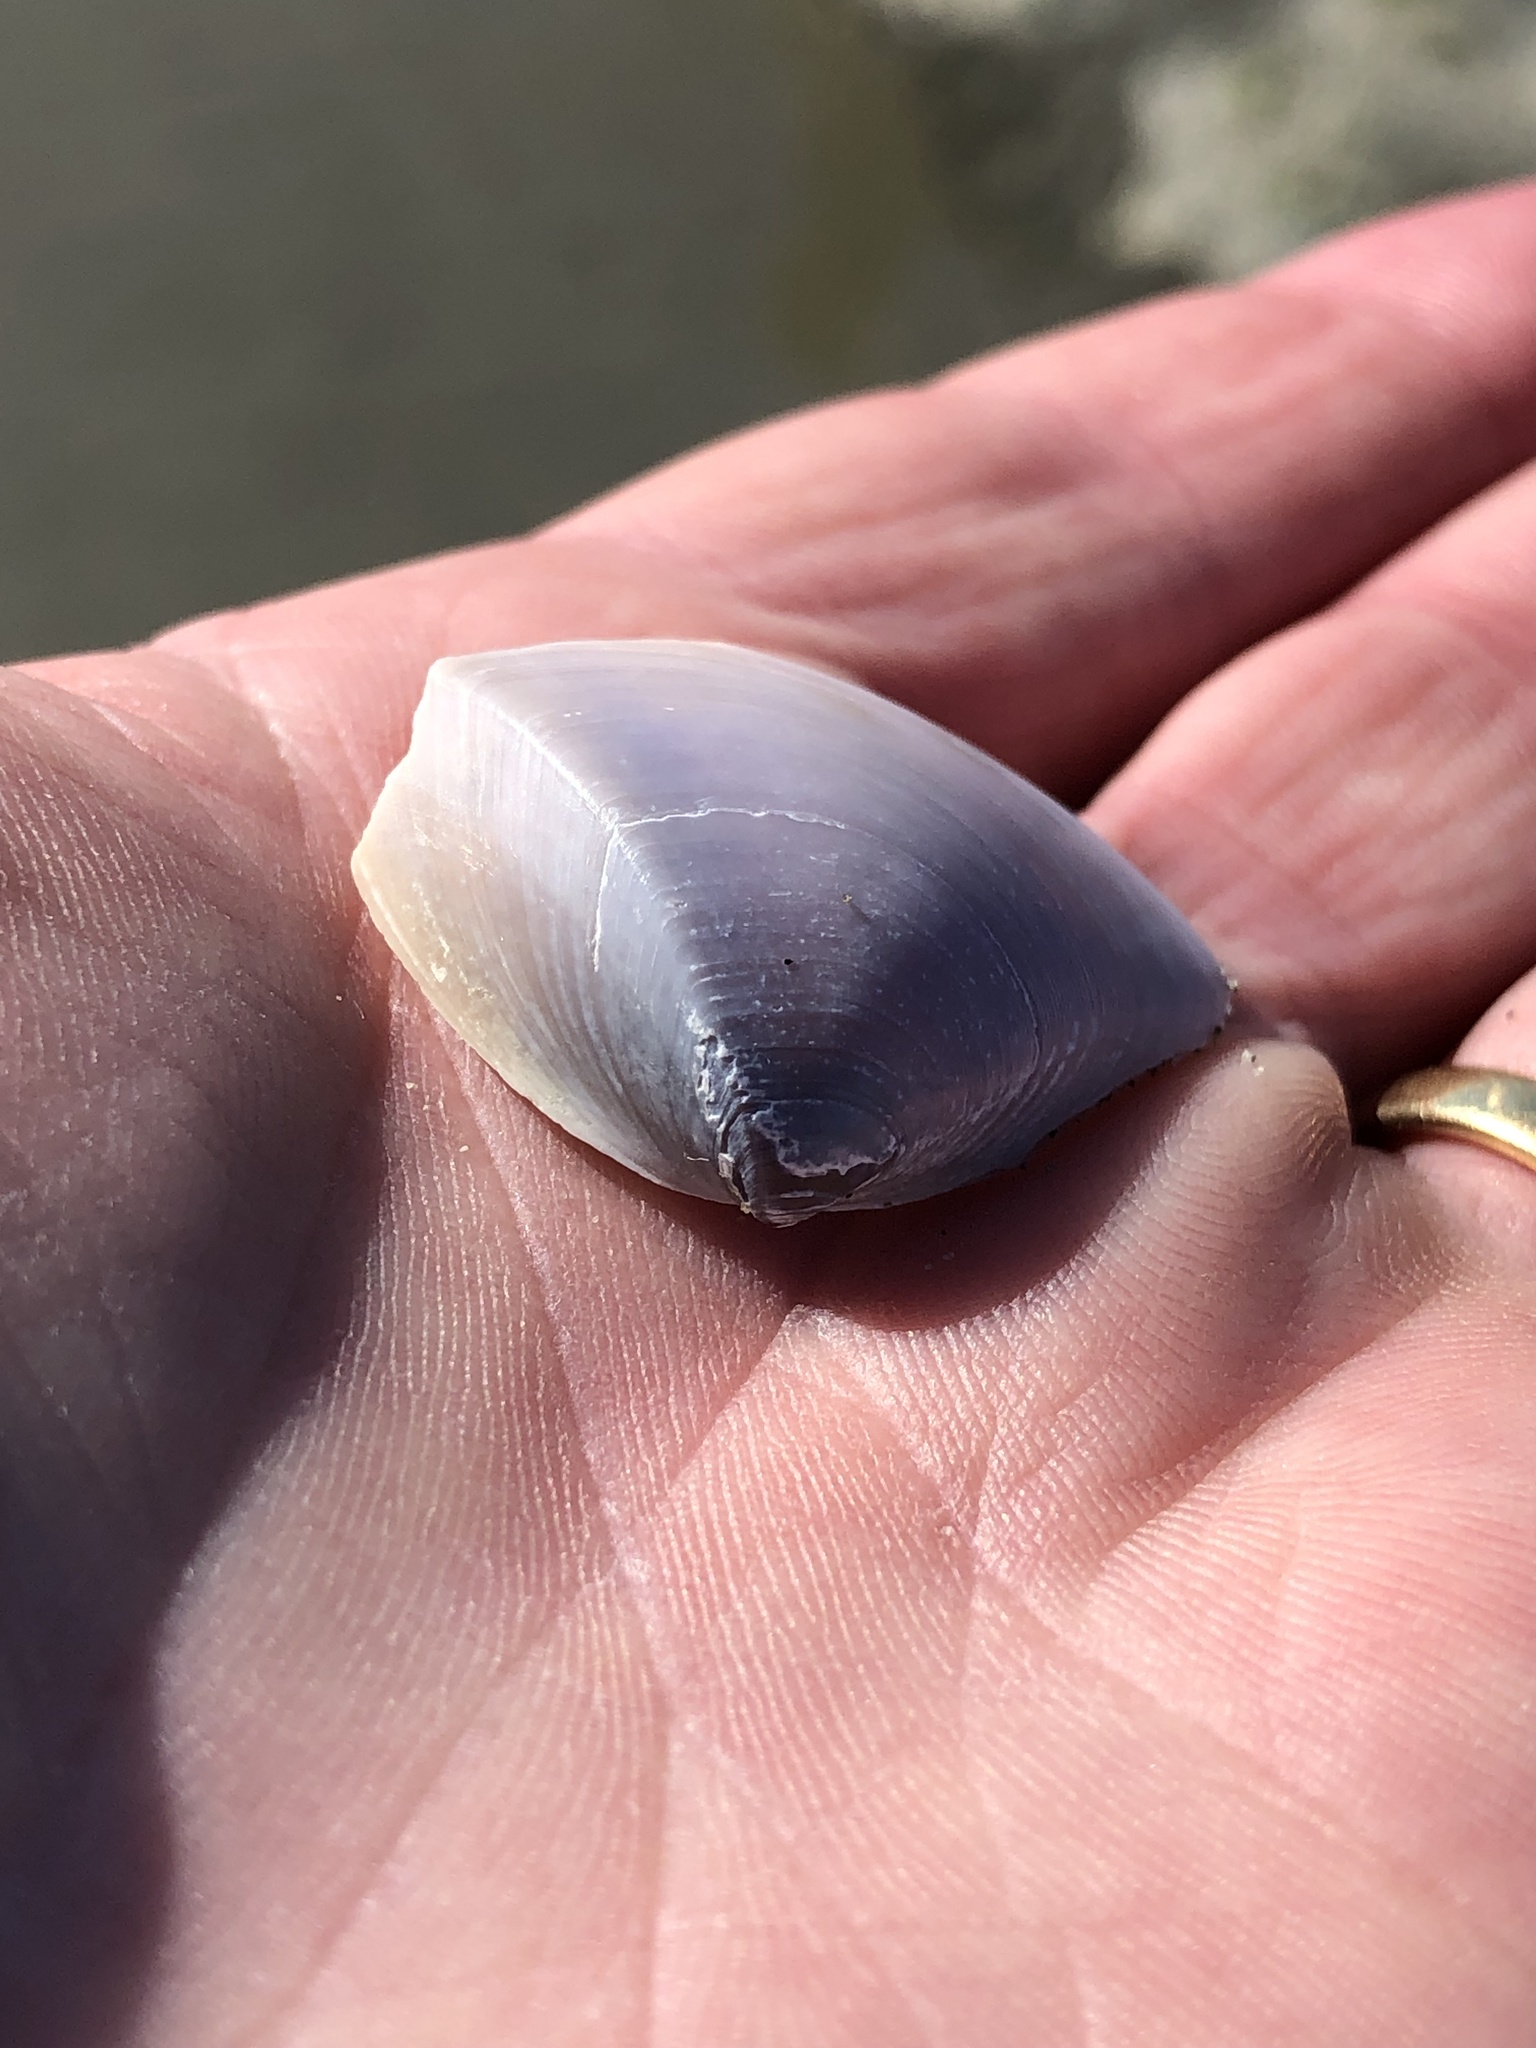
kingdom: Animalia
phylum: Mollusca
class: Bivalvia
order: Venerida
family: Mactridae
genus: Crassula
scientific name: Crassula aequilatera
